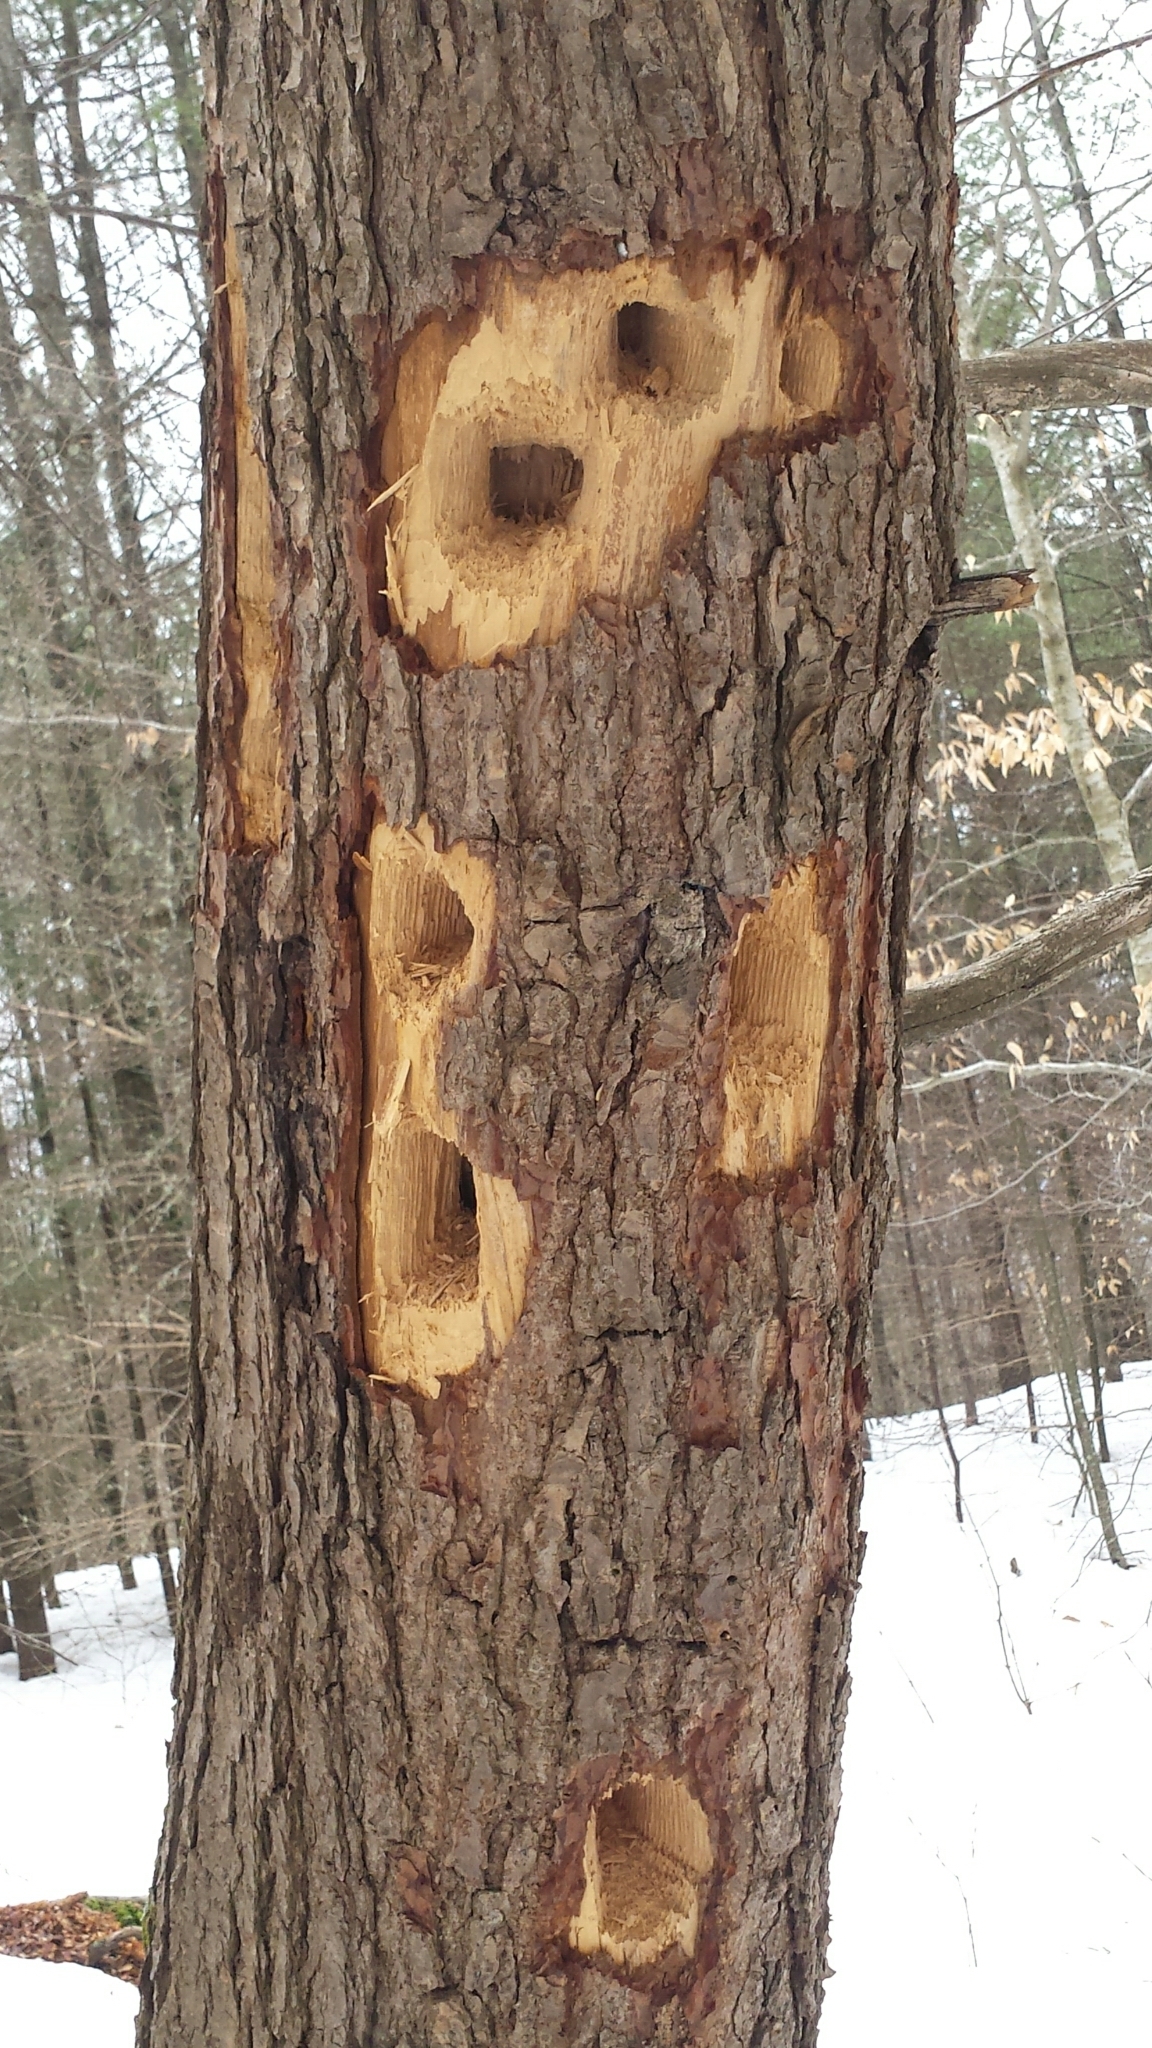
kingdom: Animalia
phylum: Chordata
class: Aves
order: Piciformes
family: Picidae
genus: Dryocopus
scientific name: Dryocopus pileatus
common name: Pileated woodpecker
